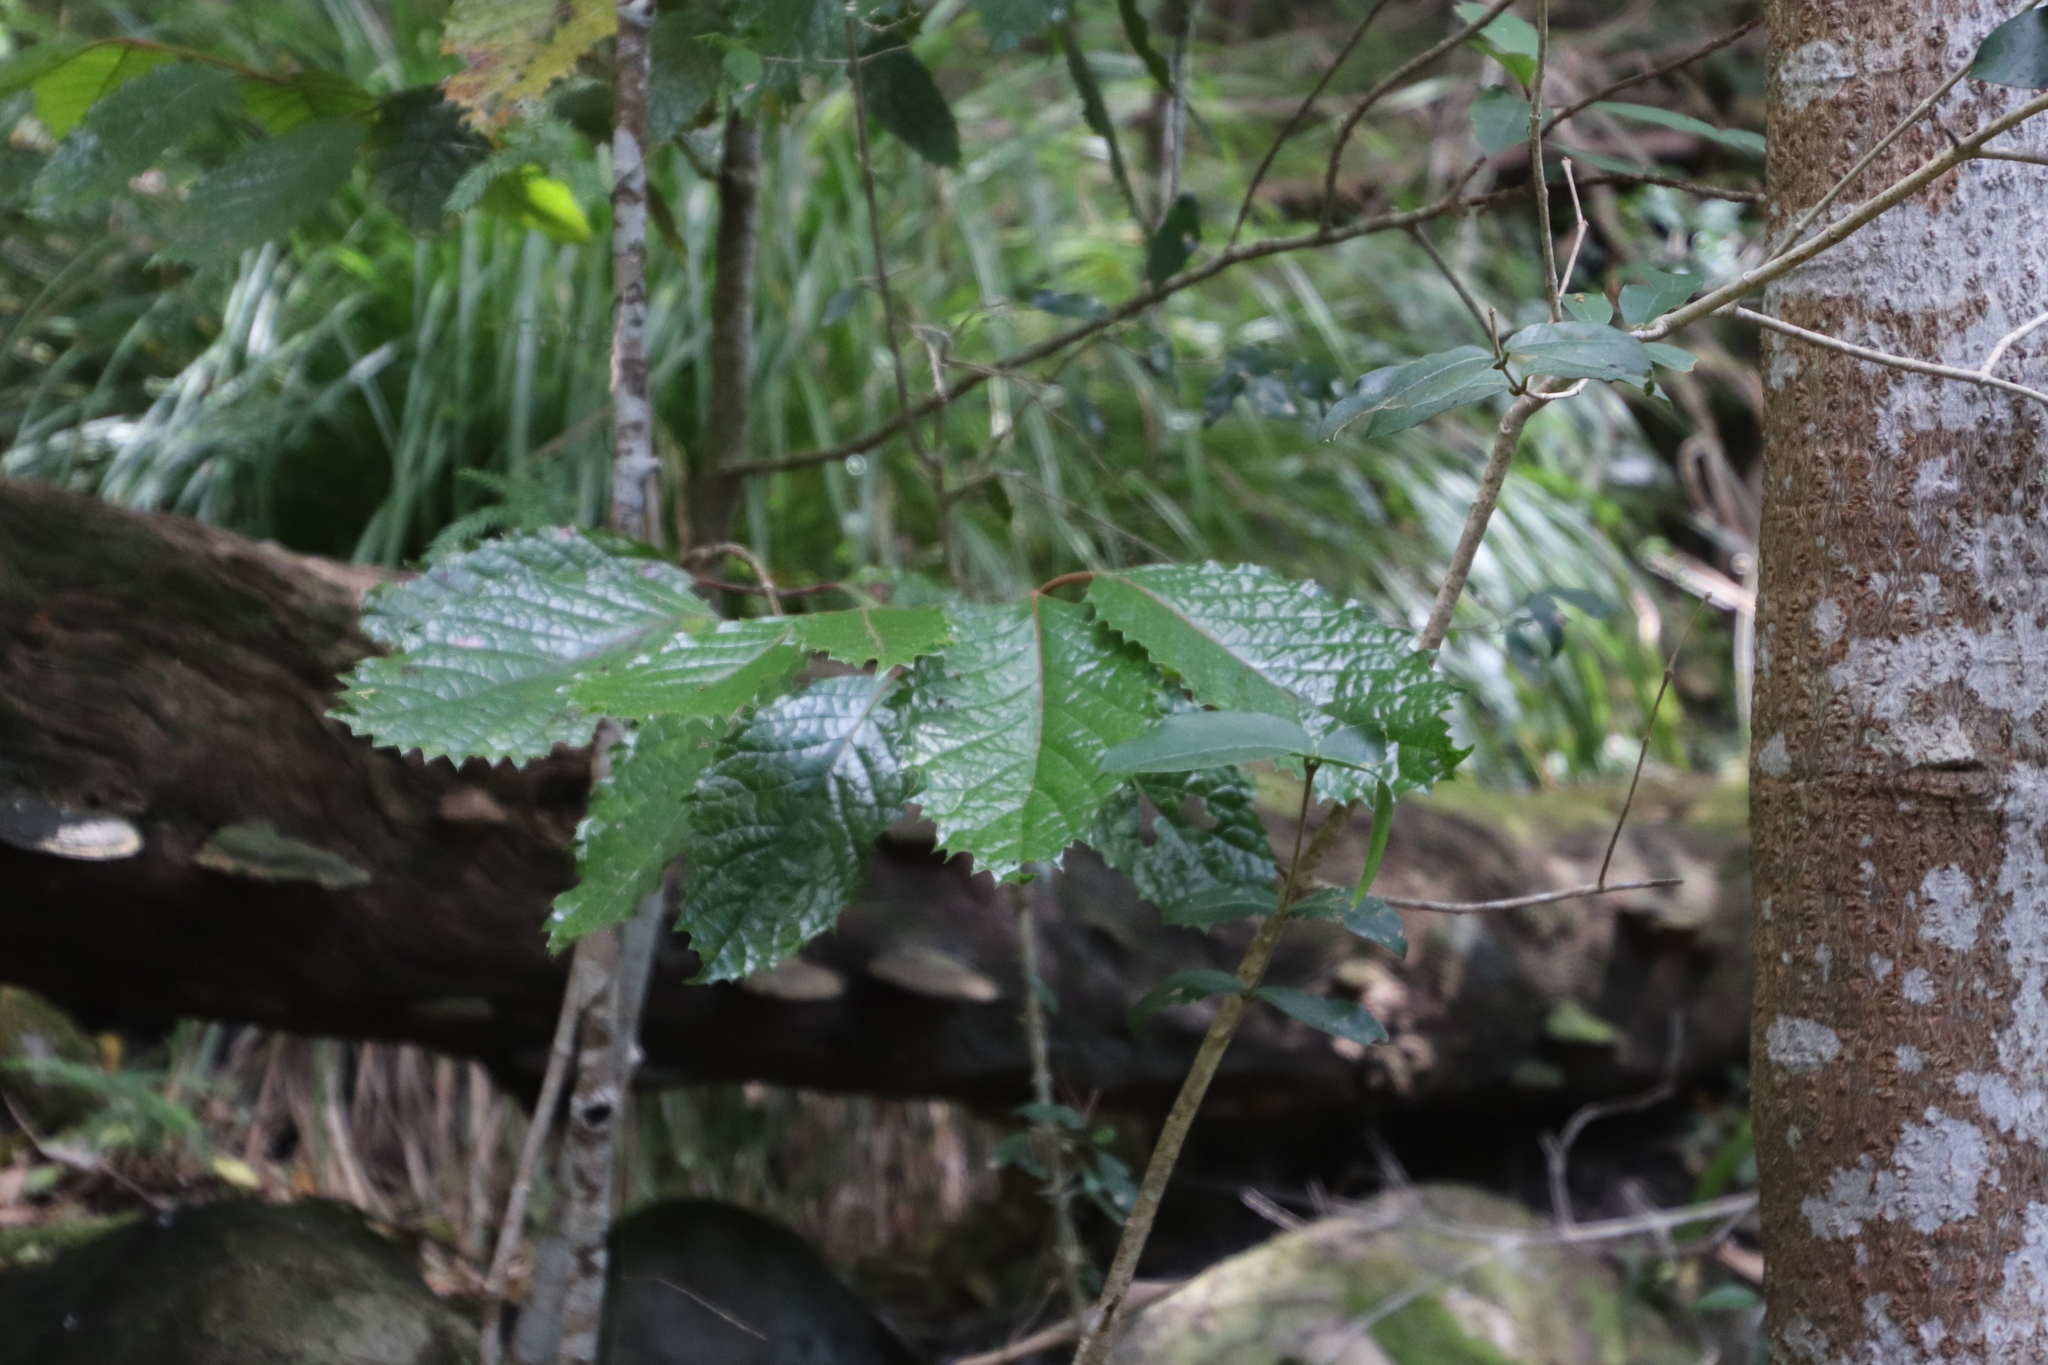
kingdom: Plantae
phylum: Tracheophyta
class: Magnoliopsida
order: Cornales
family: Curtisiaceae
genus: Curtisia
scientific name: Curtisia dentata
